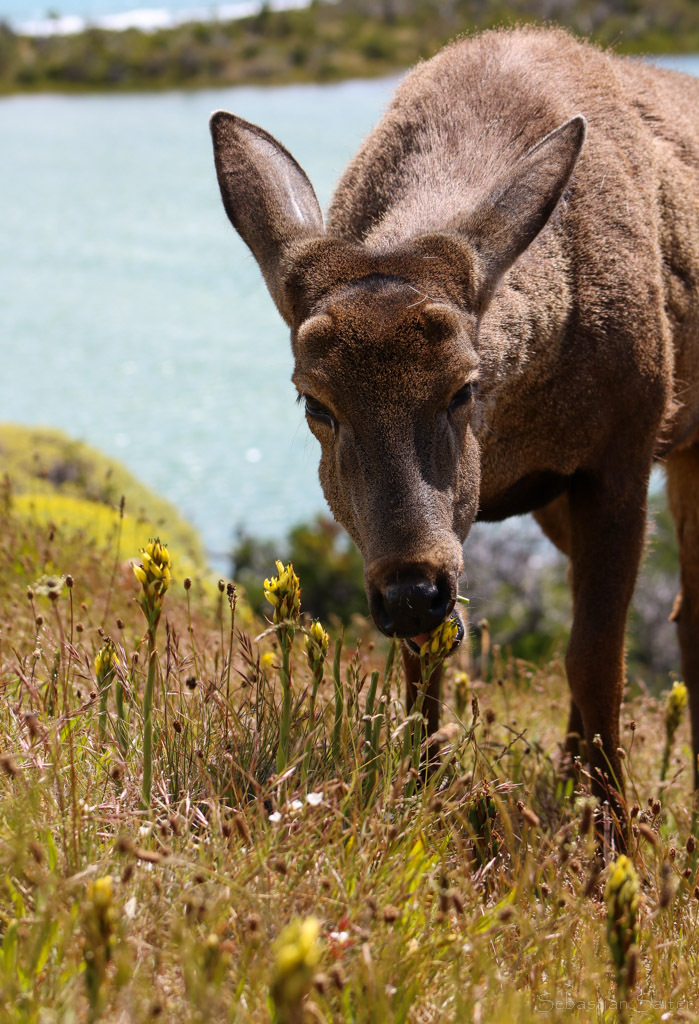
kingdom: Animalia
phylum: Chordata
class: Mammalia
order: Artiodactyla
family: Cervidae
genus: Hippocamelus
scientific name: Hippocamelus bisulcus
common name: South andean huemul
